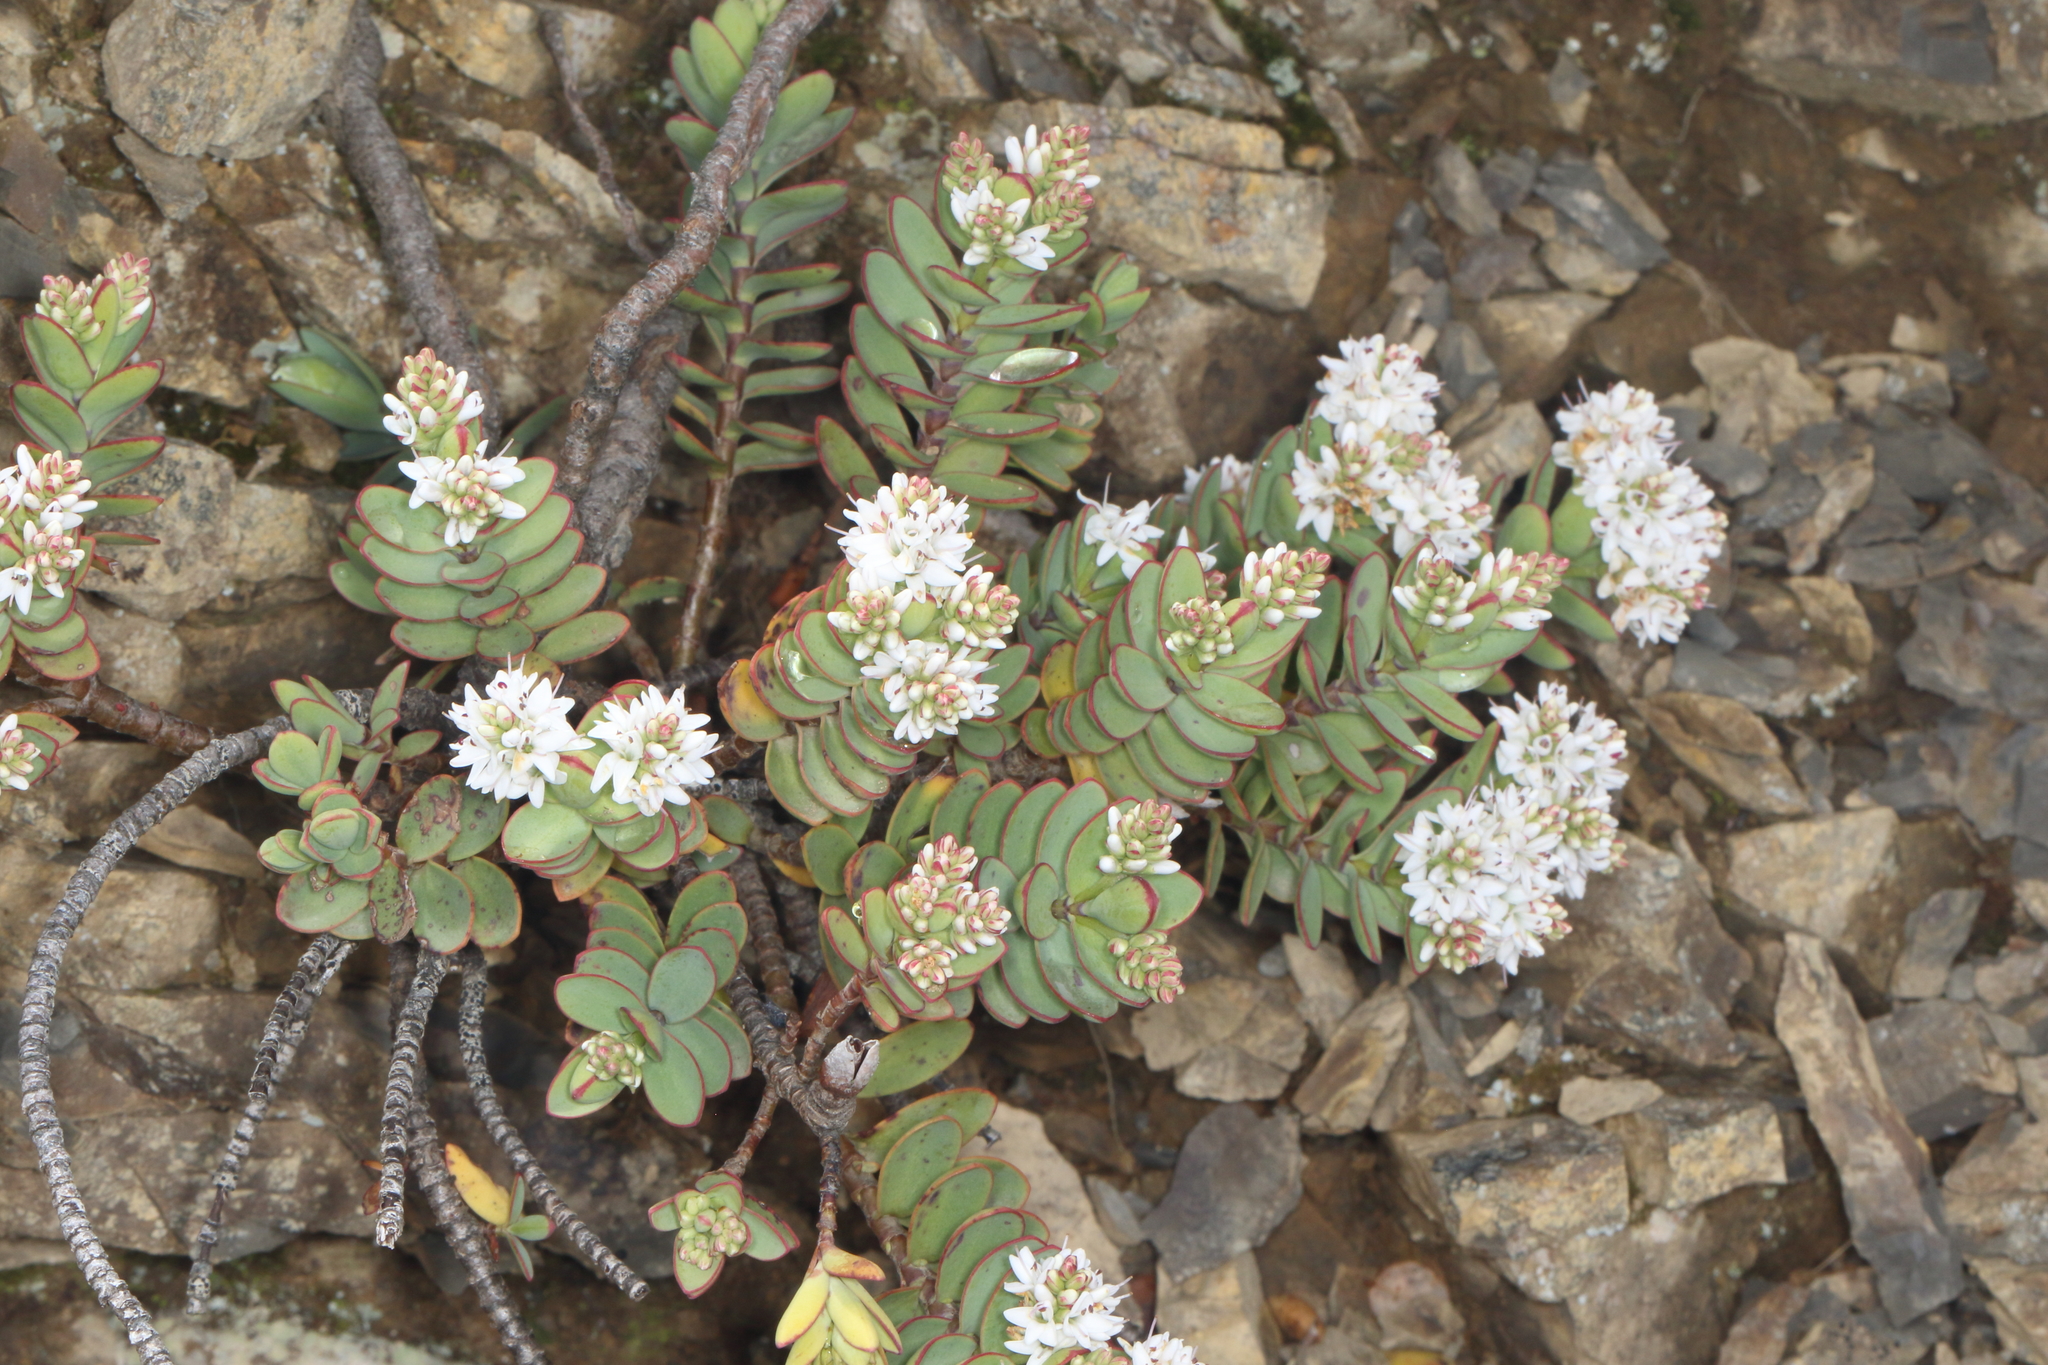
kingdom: Plantae
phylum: Tracheophyta
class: Magnoliopsida
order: Lamiales
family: Plantaginaceae
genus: Veronica
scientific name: Veronica pinguifolia
